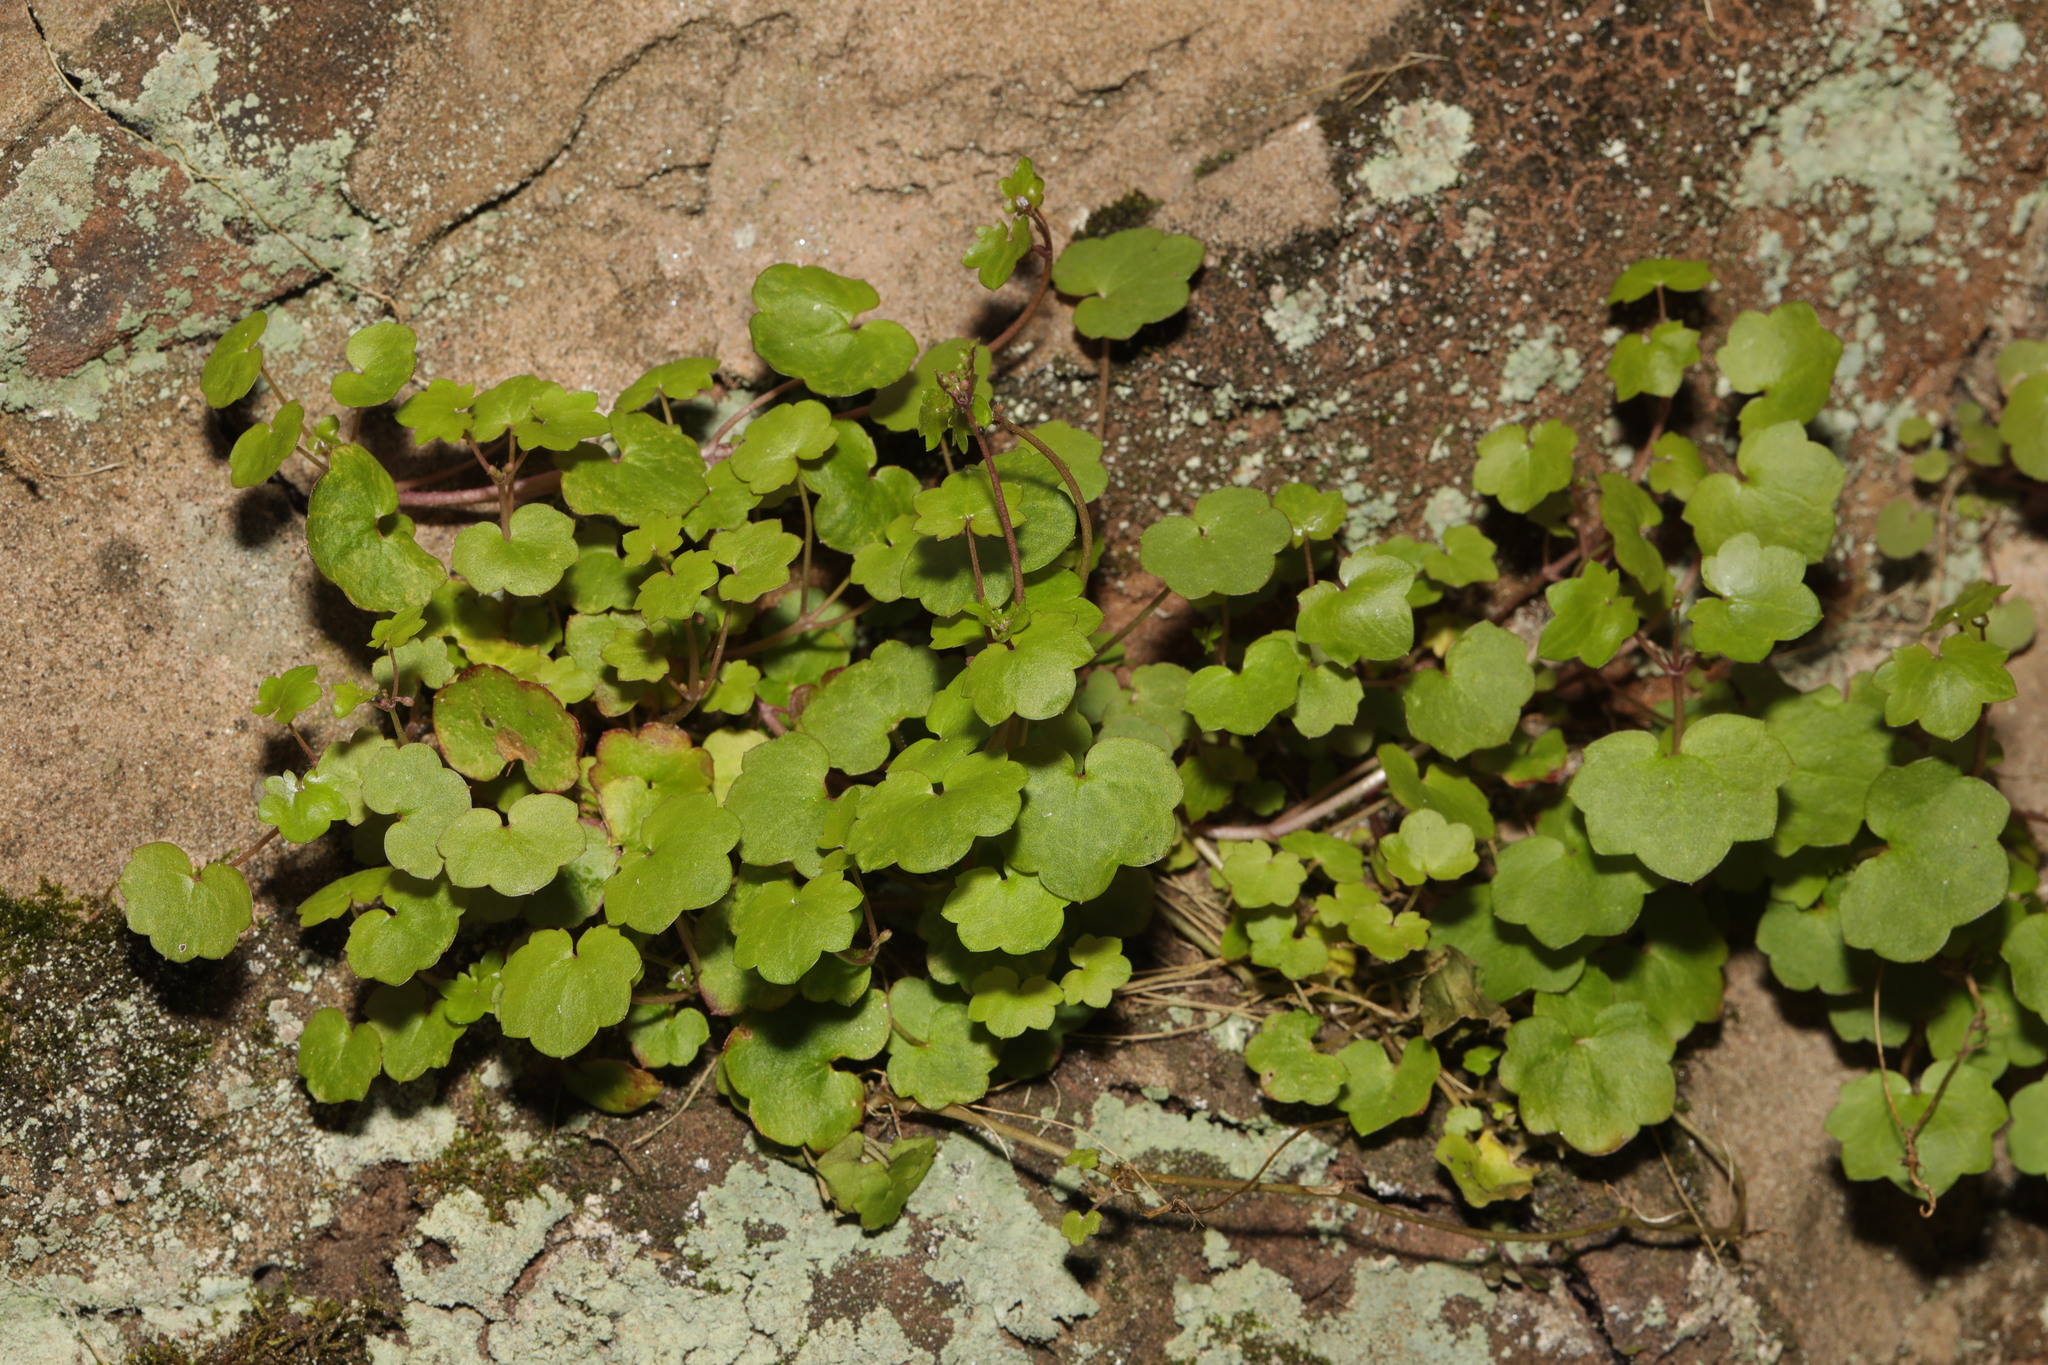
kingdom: Plantae
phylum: Tracheophyta
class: Magnoliopsida
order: Lamiales
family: Plantaginaceae
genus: Cymbalaria
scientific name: Cymbalaria muralis
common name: Ivy-leaved toadflax
